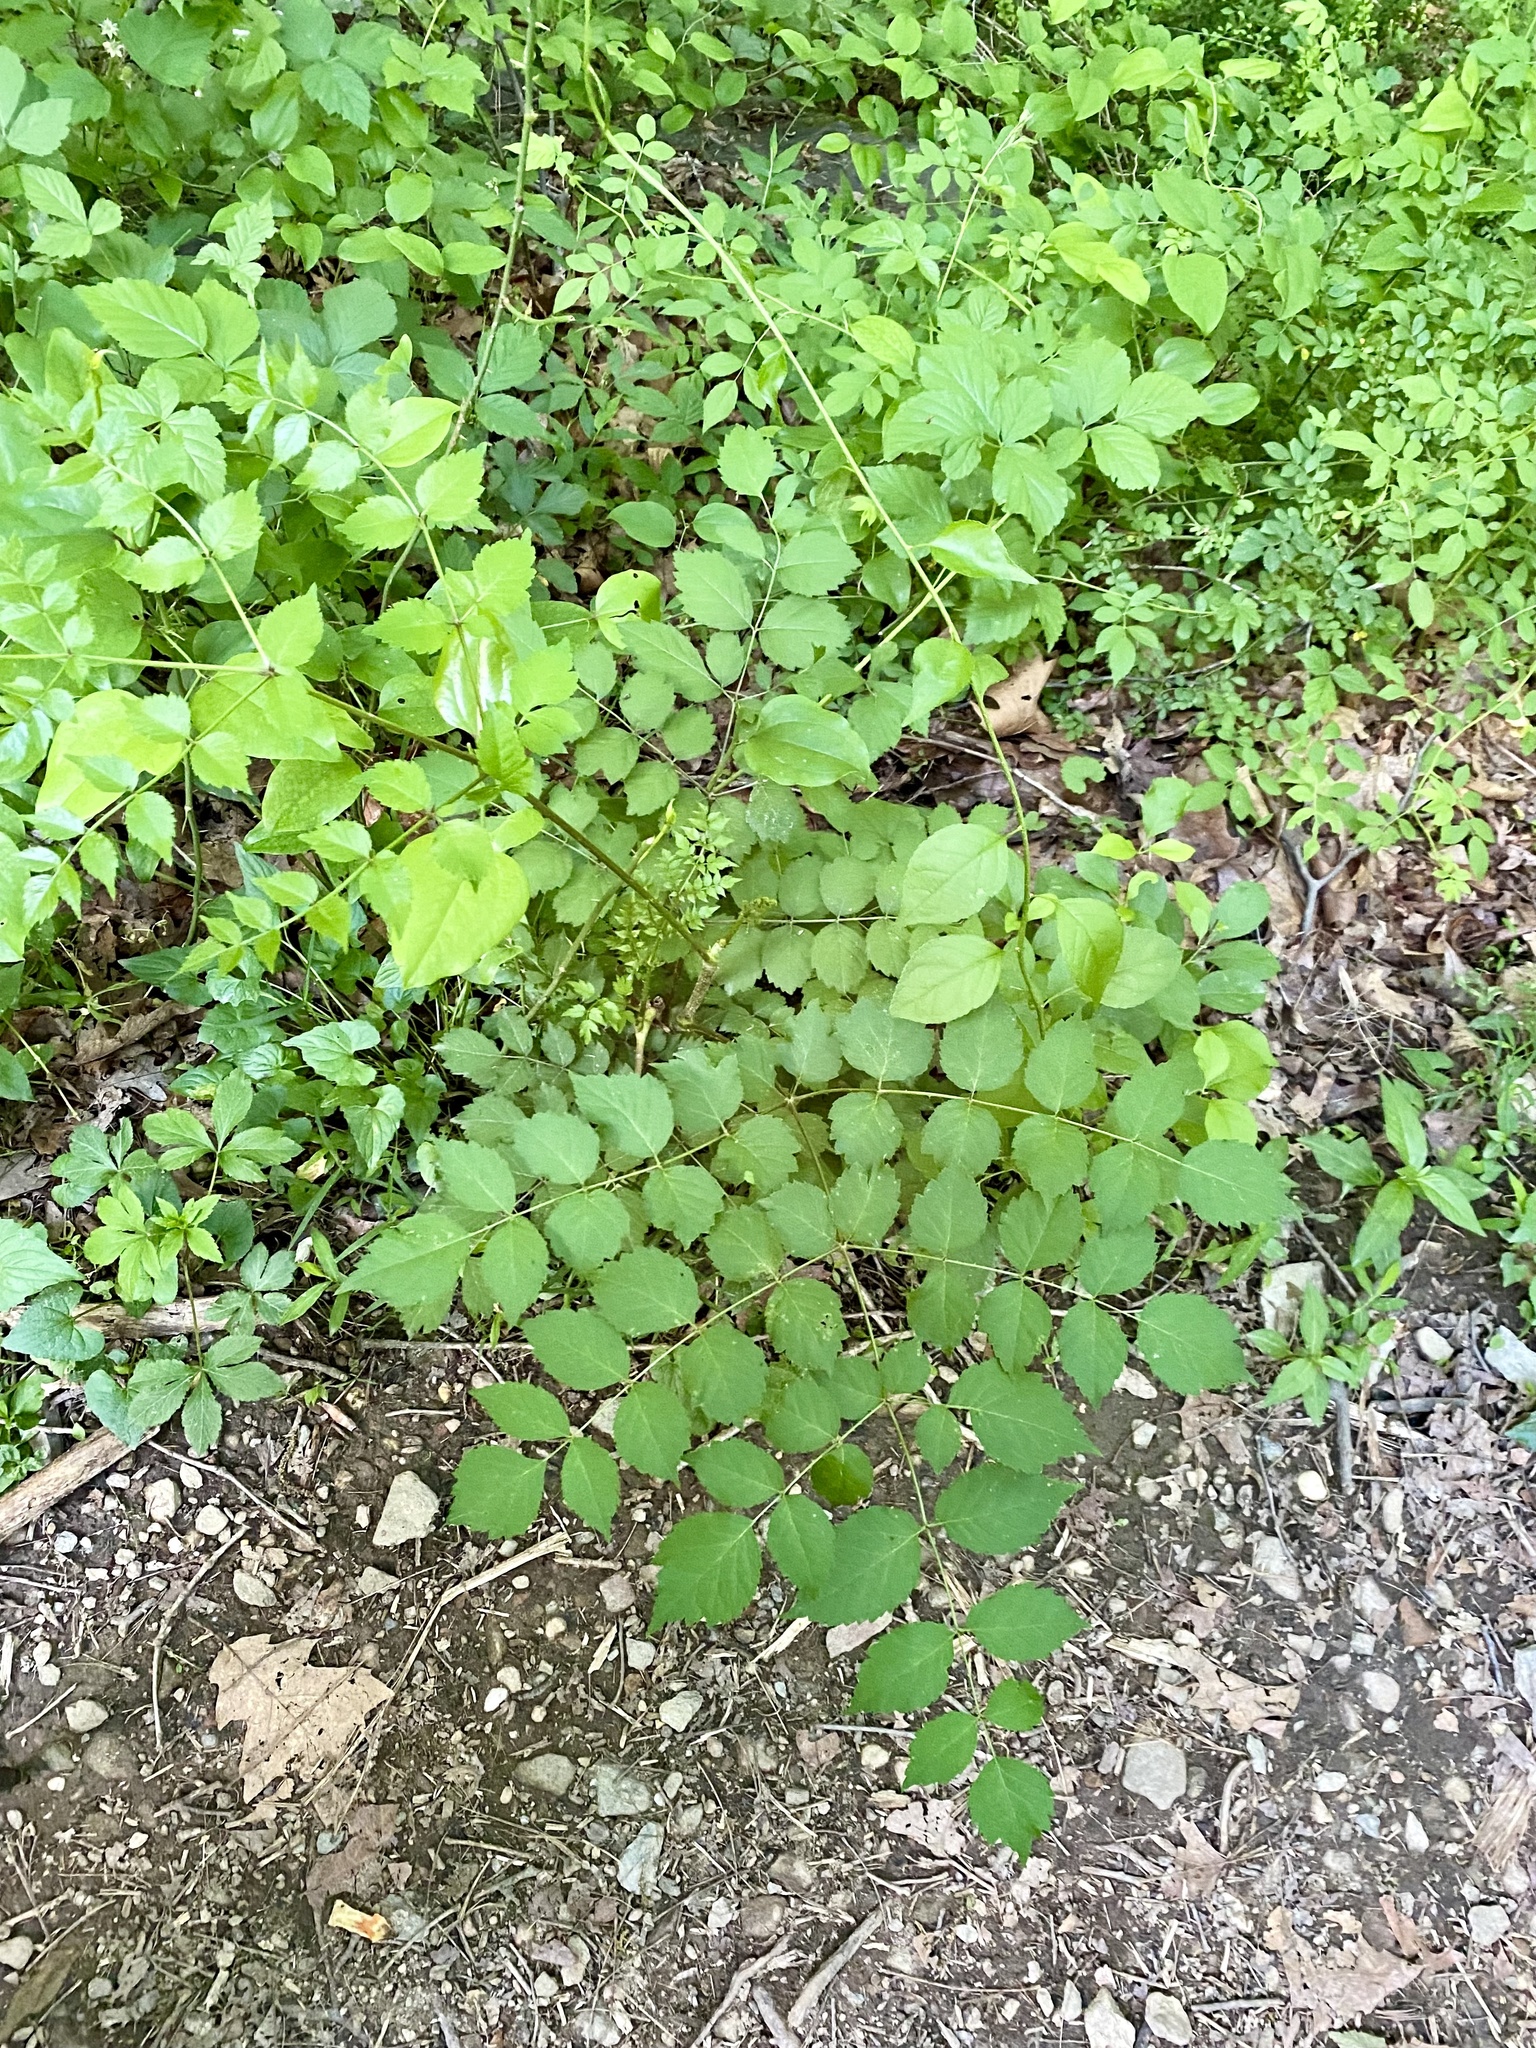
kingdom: Plantae
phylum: Tracheophyta
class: Magnoliopsida
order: Apiales
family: Araliaceae
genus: Aralia
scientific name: Aralia elata
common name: Japanese angelica-tree
